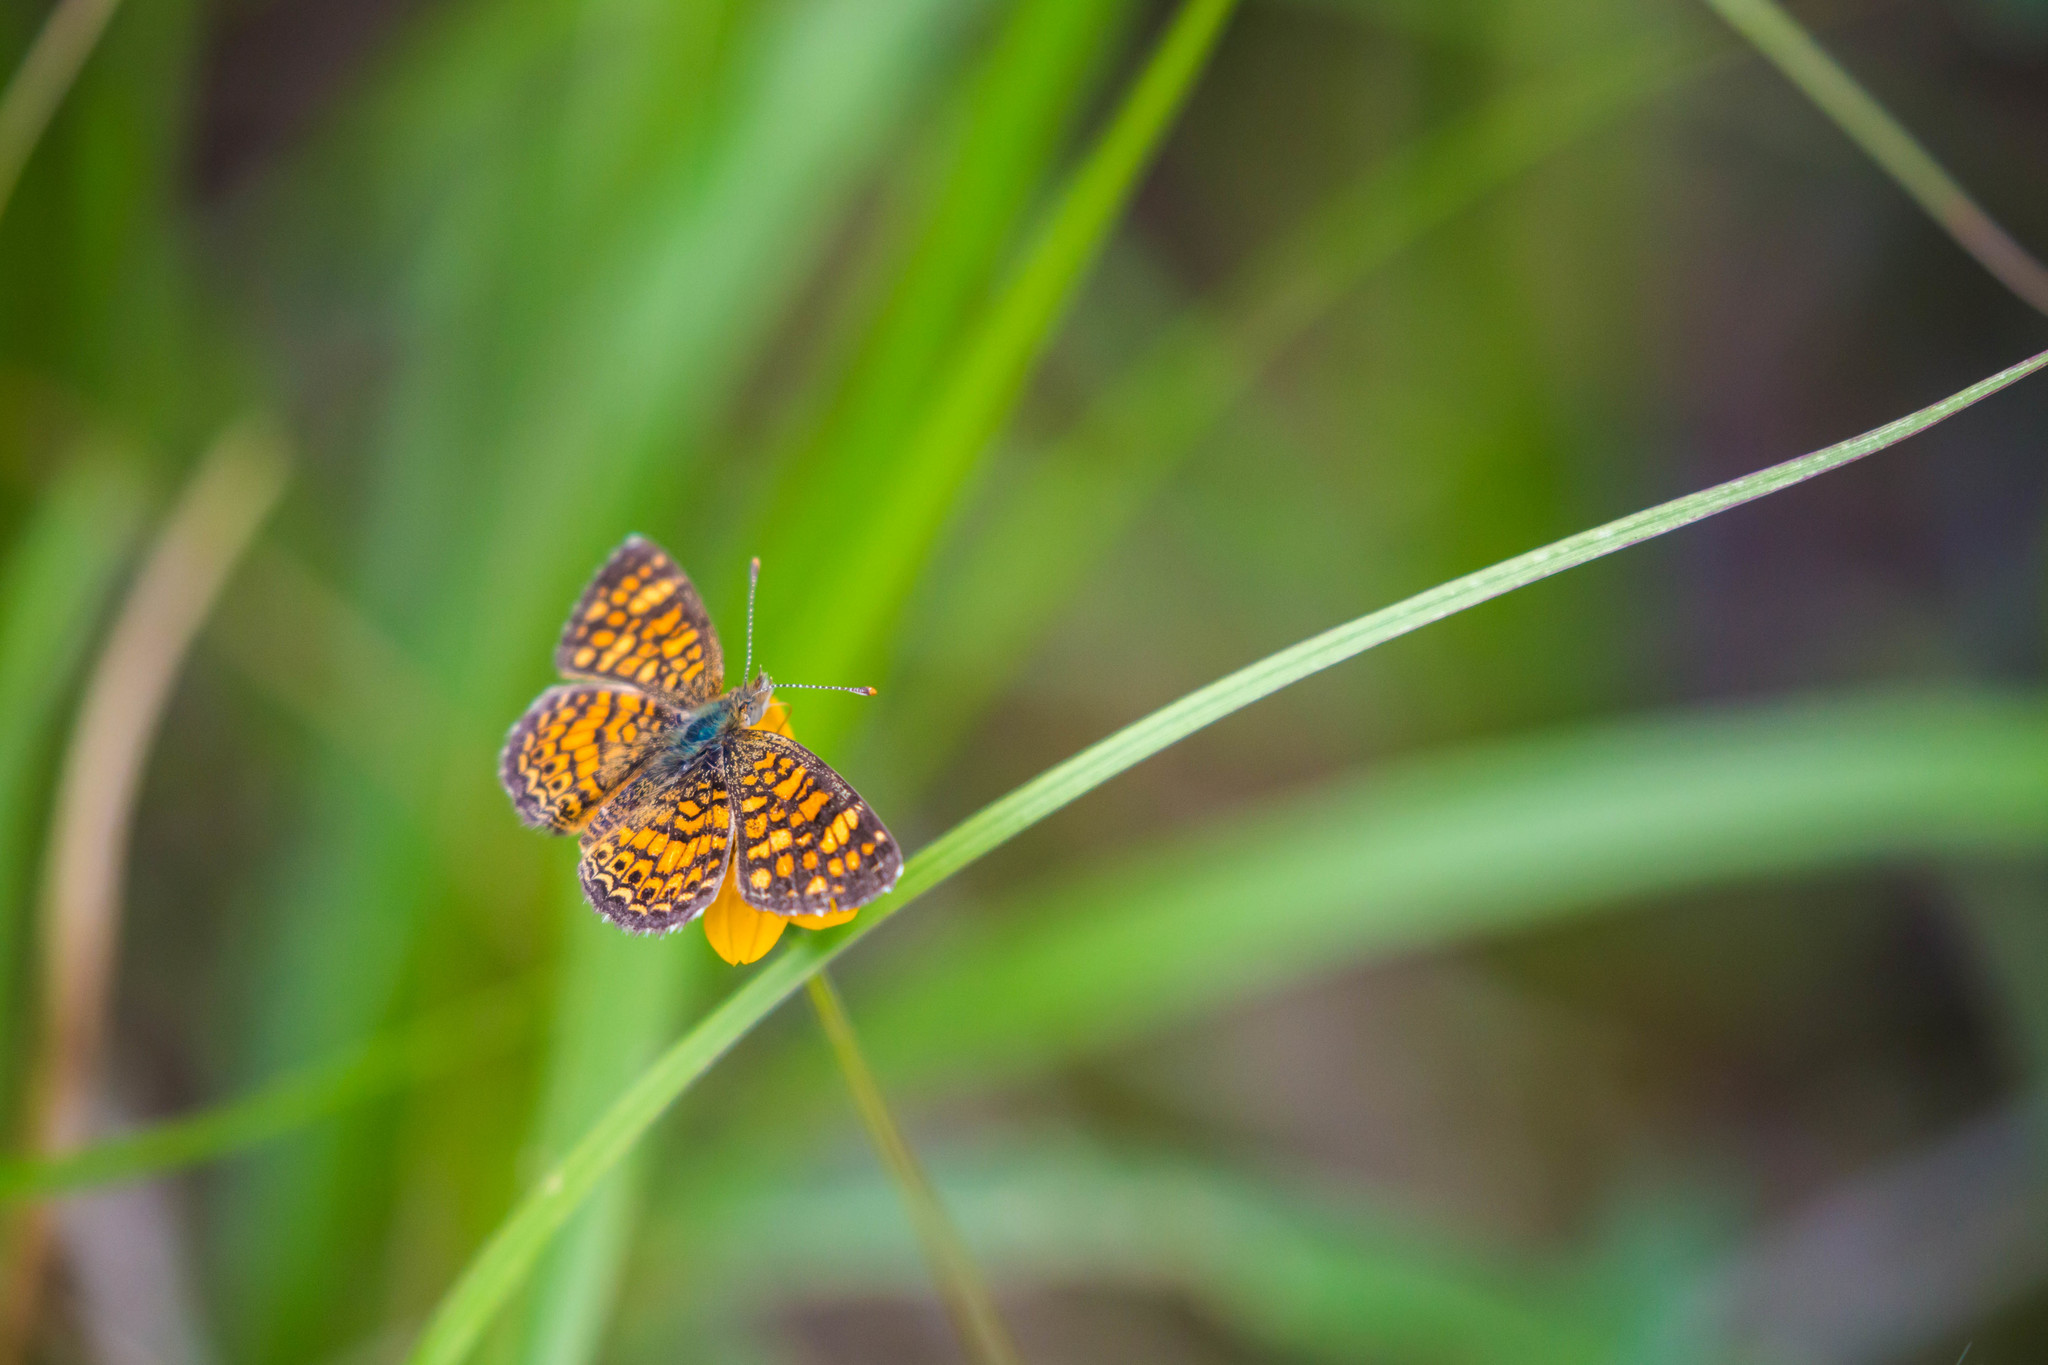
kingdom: Animalia
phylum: Arthropoda
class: Insecta
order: Lepidoptera
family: Nymphalidae
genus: Phyciodes
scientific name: Phyciodes vesta
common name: Vesta crescent
